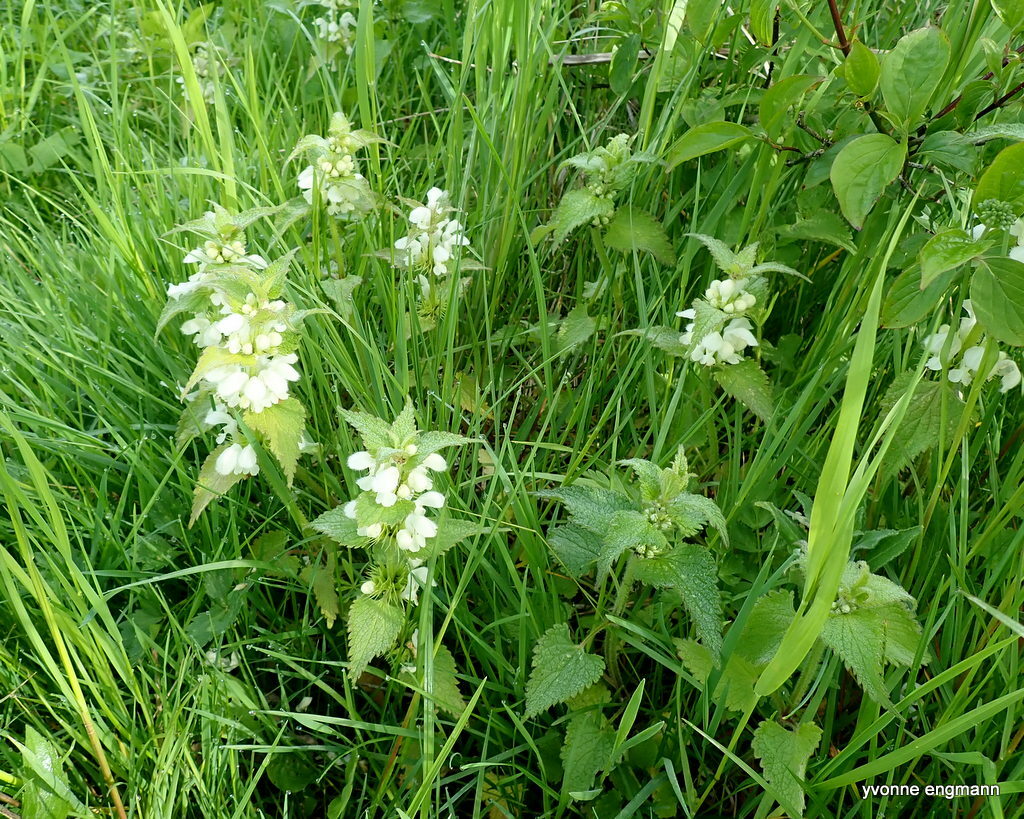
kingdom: Plantae
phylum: Tracheophyta
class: Magnoliopsida
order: Lamiales
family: Lamiaceae
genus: Lamium
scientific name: Lamium album
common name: White dead-nettle
